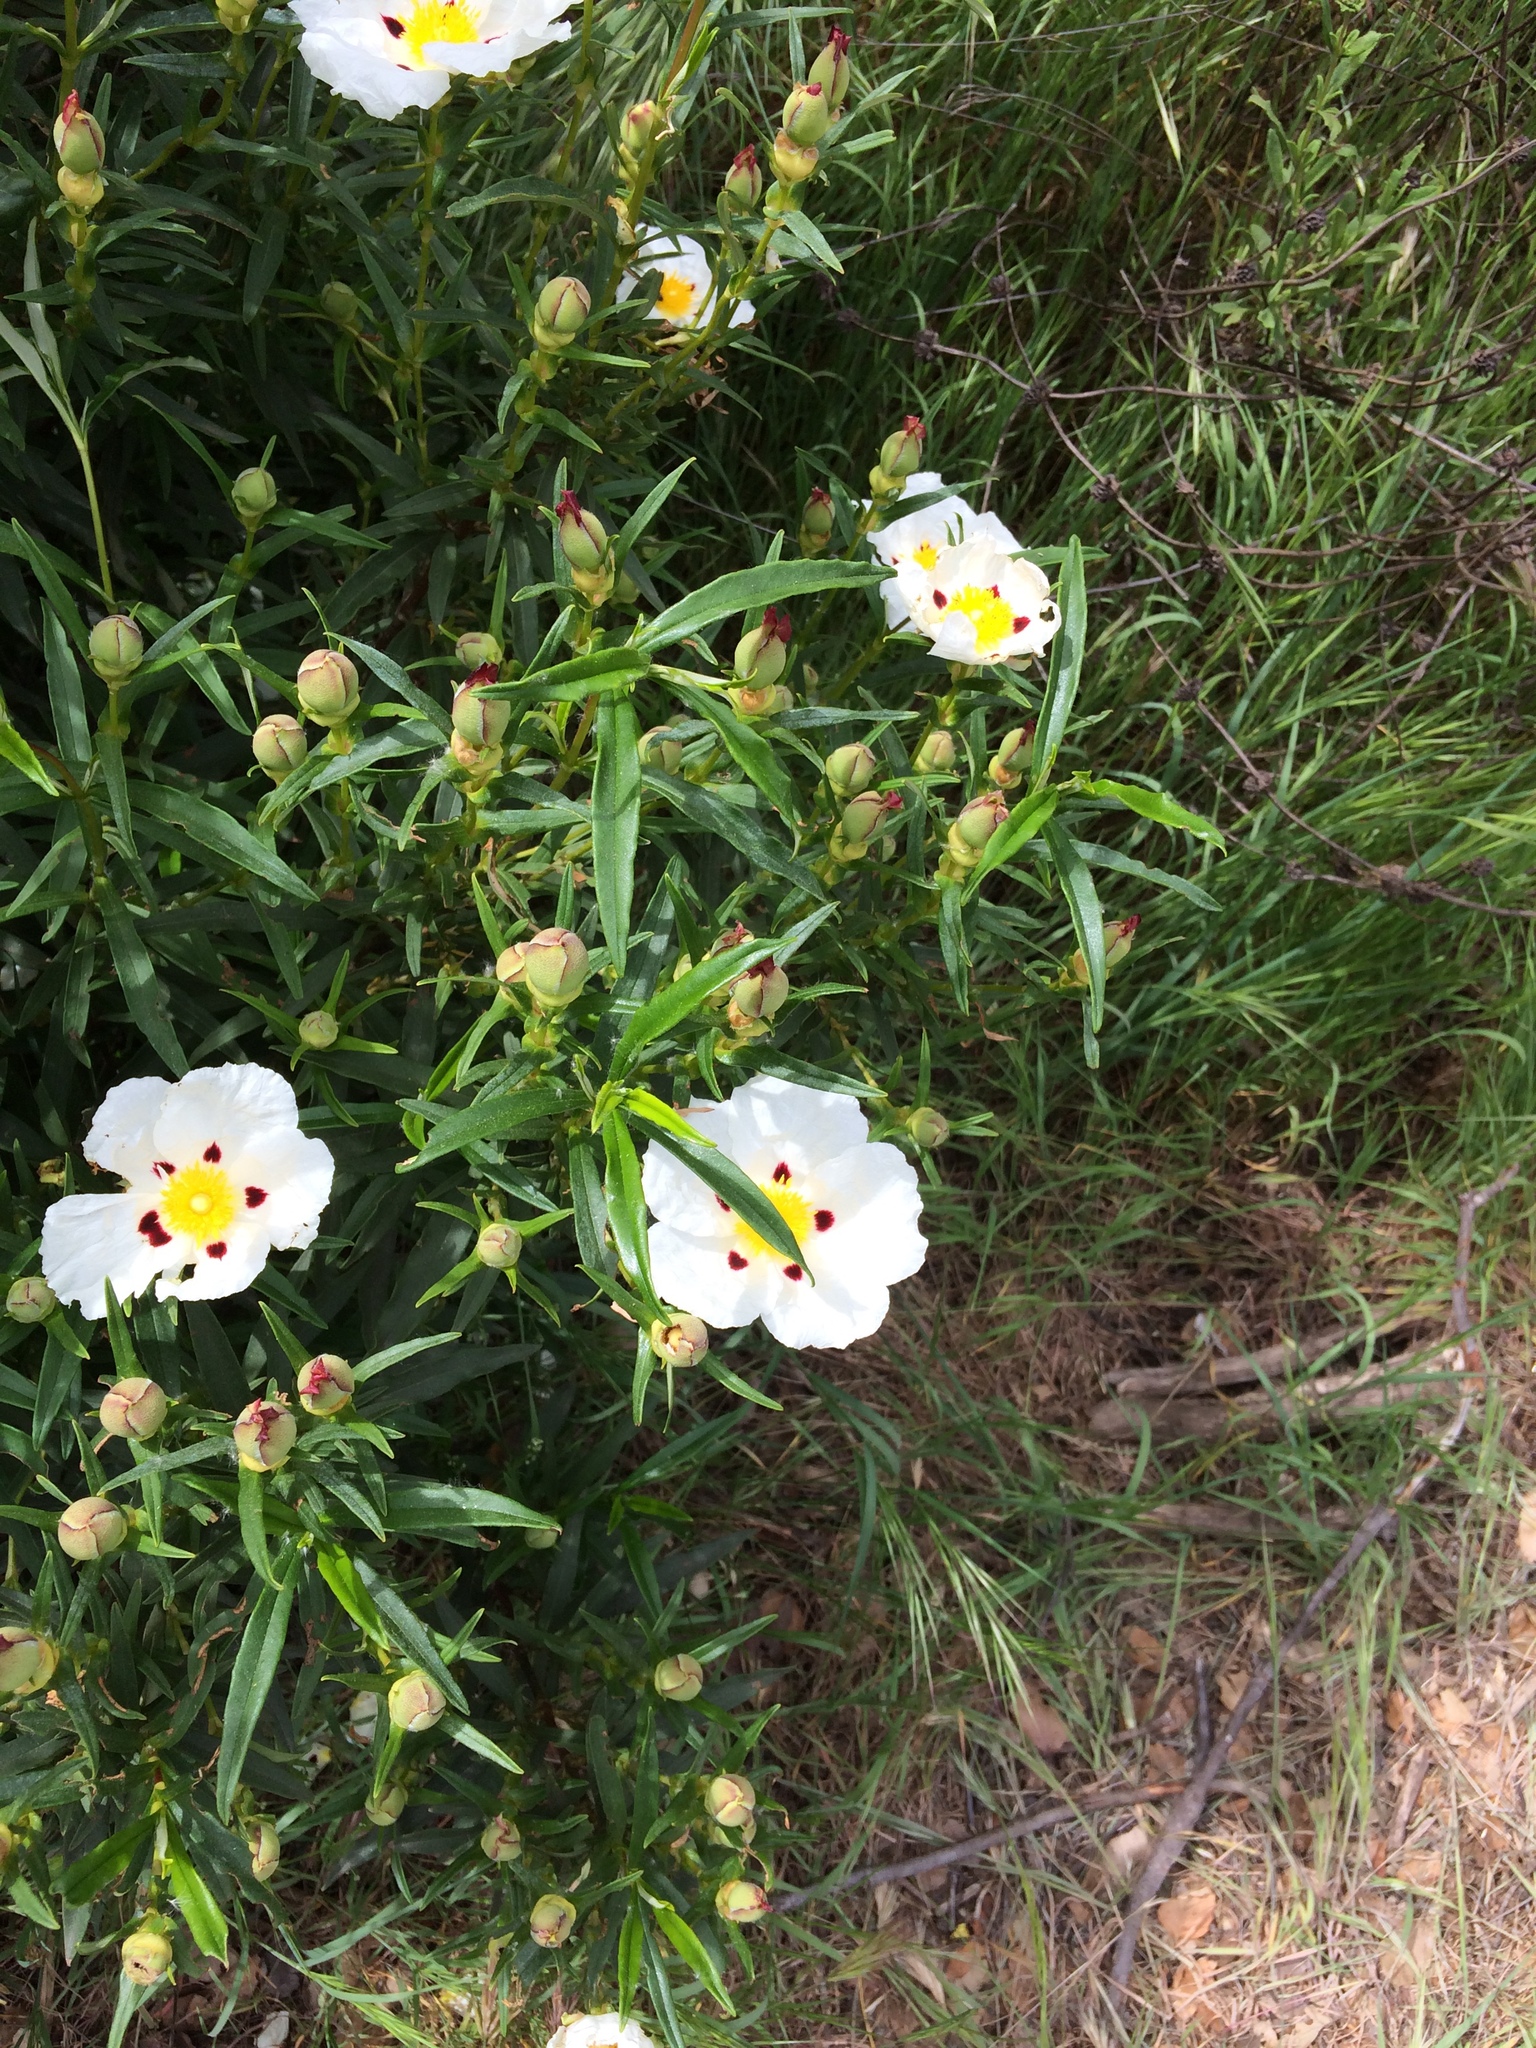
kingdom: Plantae
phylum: Tracheophyta
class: Magnoliopsida
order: Malvales
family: Cistaceae
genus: Cistus
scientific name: Cistus ladanifer
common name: Common gum cistus
